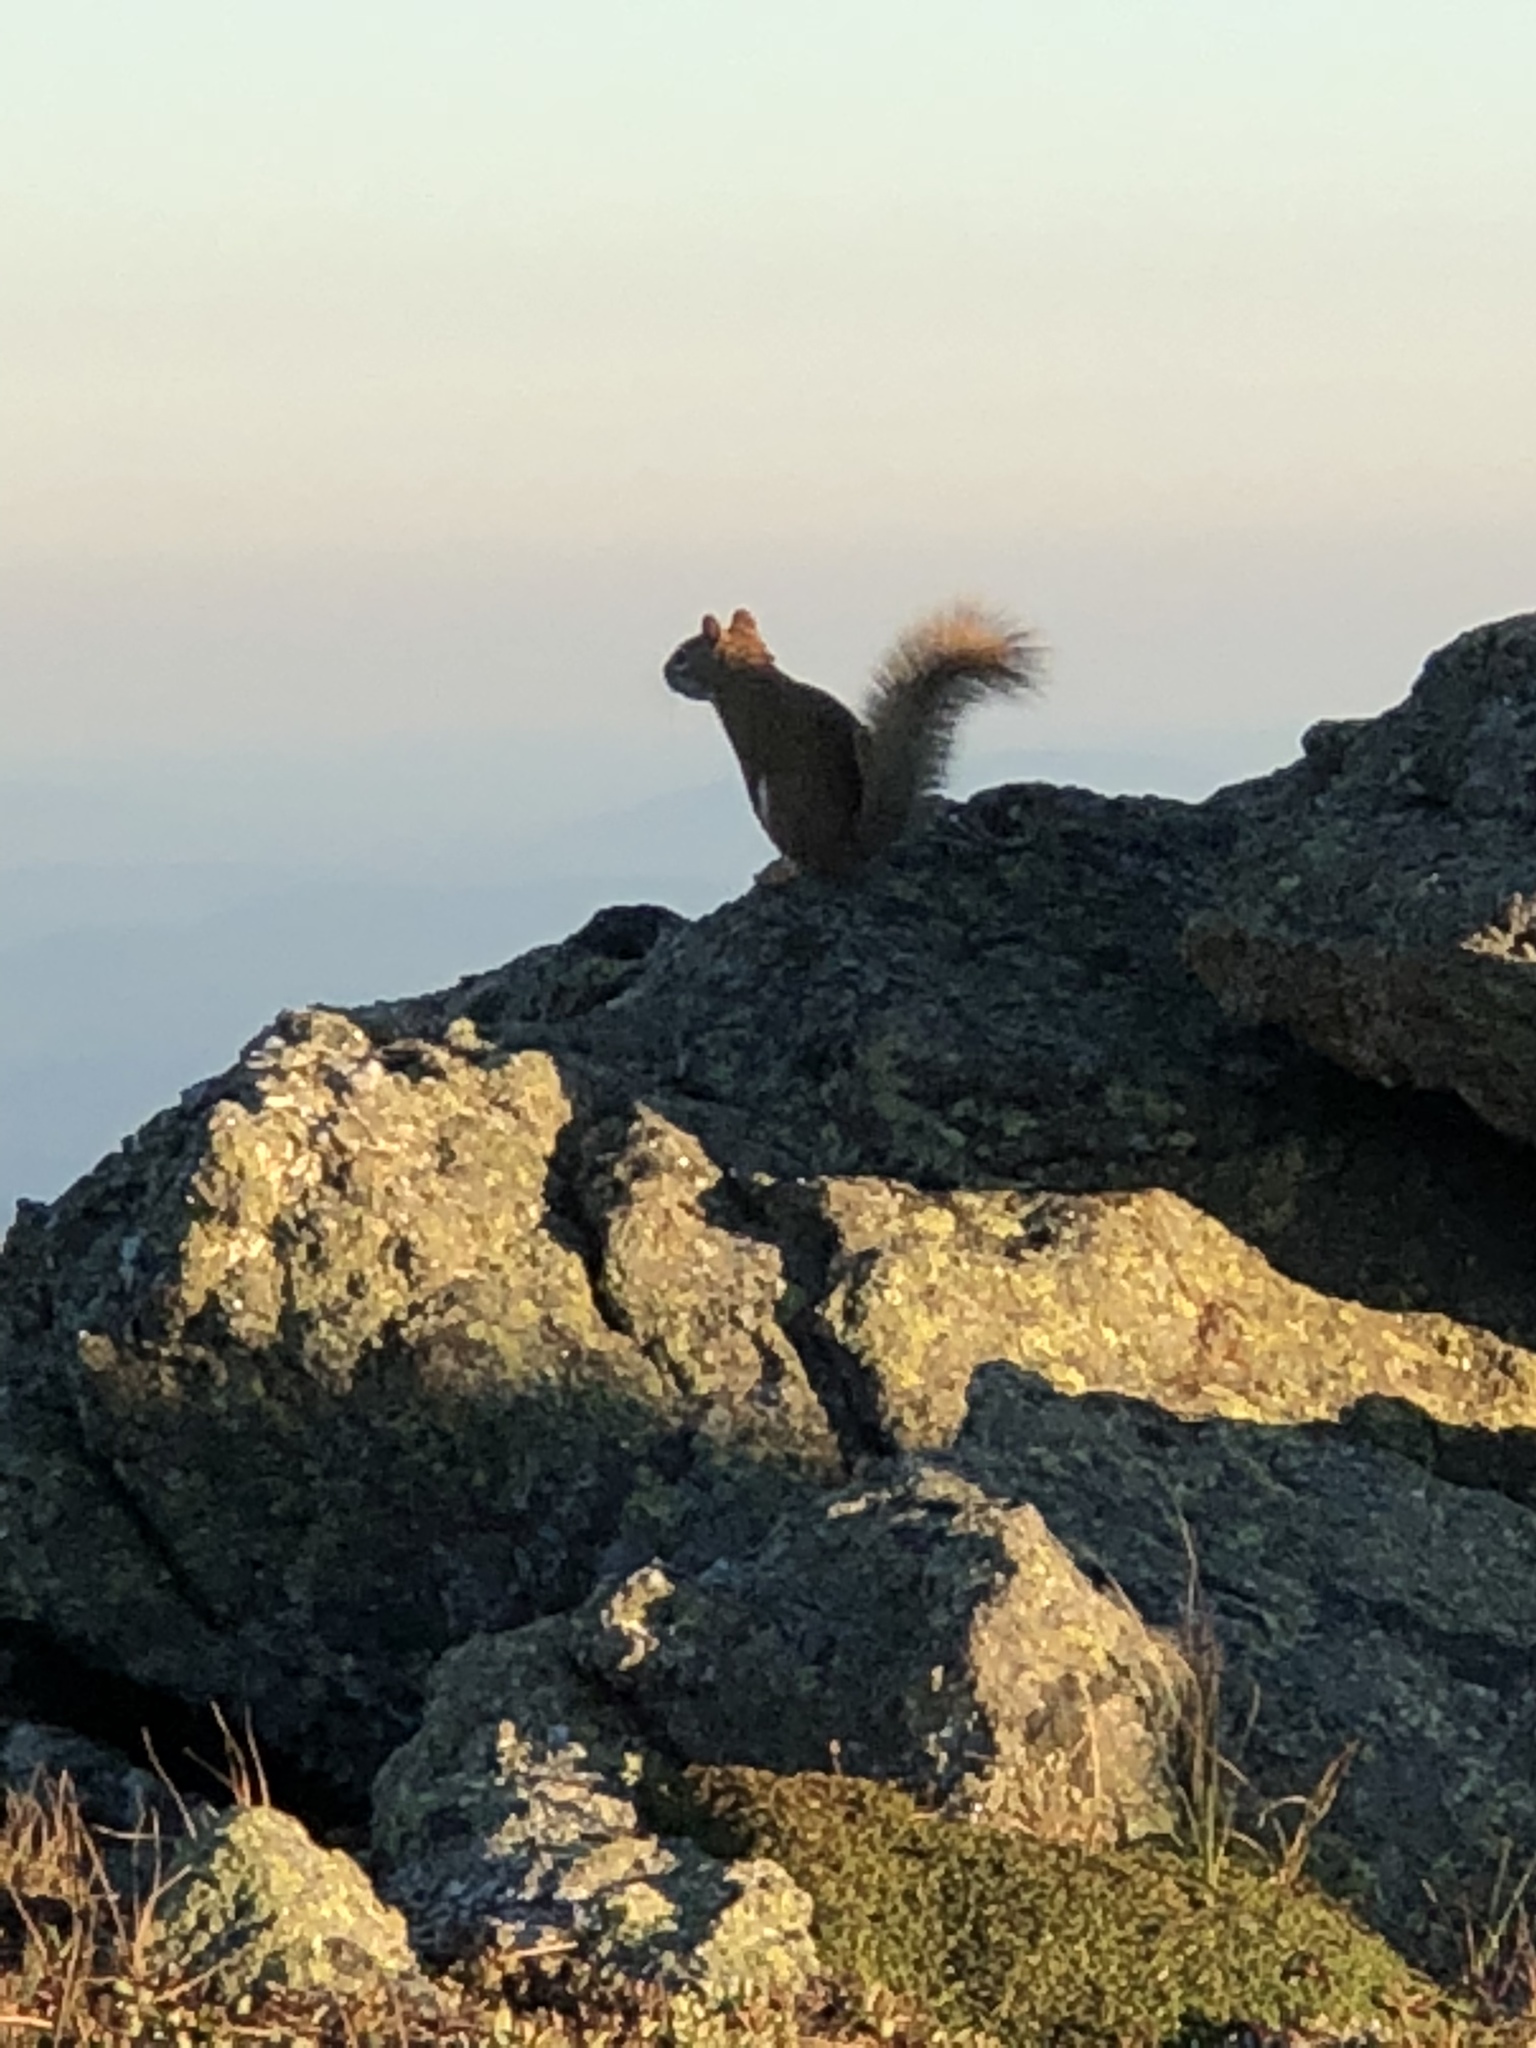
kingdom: Animalia
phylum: Chordata
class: Mammalia
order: Rodentia
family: Sciuridae
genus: Tamiasciurus
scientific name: Tamiasciurus hudsonicus
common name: Red squirrel
